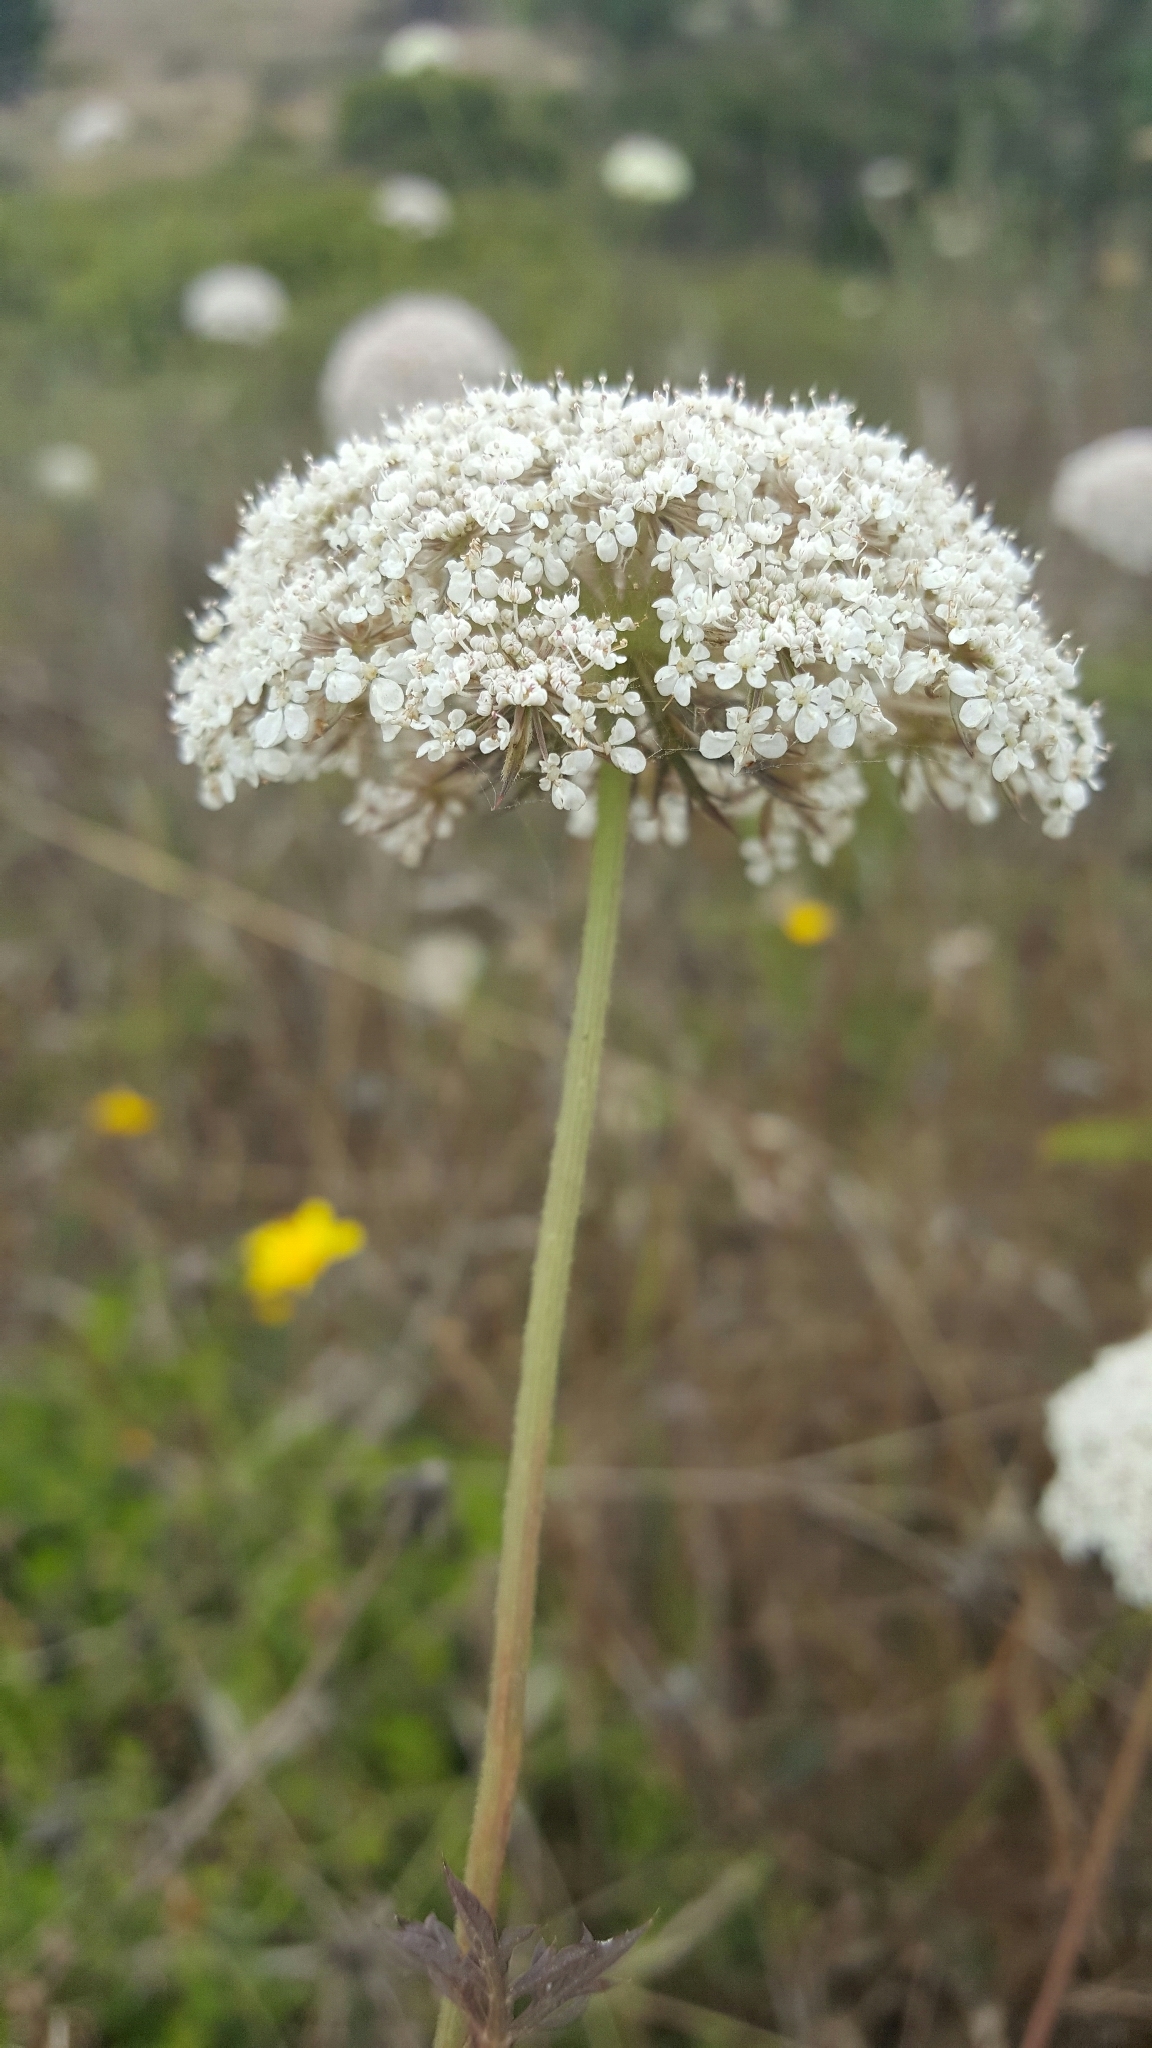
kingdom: Plantae
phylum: Tracheophyta
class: Magnoliopsida
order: Apiales
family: Apiaceae
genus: Daucus
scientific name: Daucus carota
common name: Wild carrot
